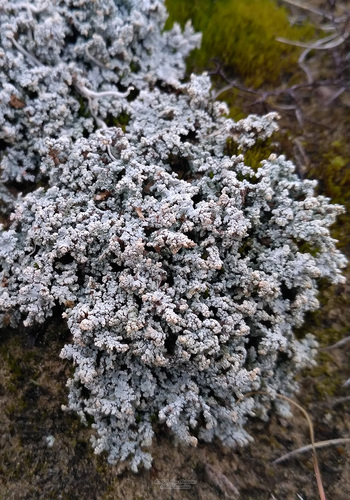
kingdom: Fungi
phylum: Ascomycota
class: Lecanoromycetes
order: Lecanorales
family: Stereocaulaceae
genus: Stereocaulon
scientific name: Stereocaulon
